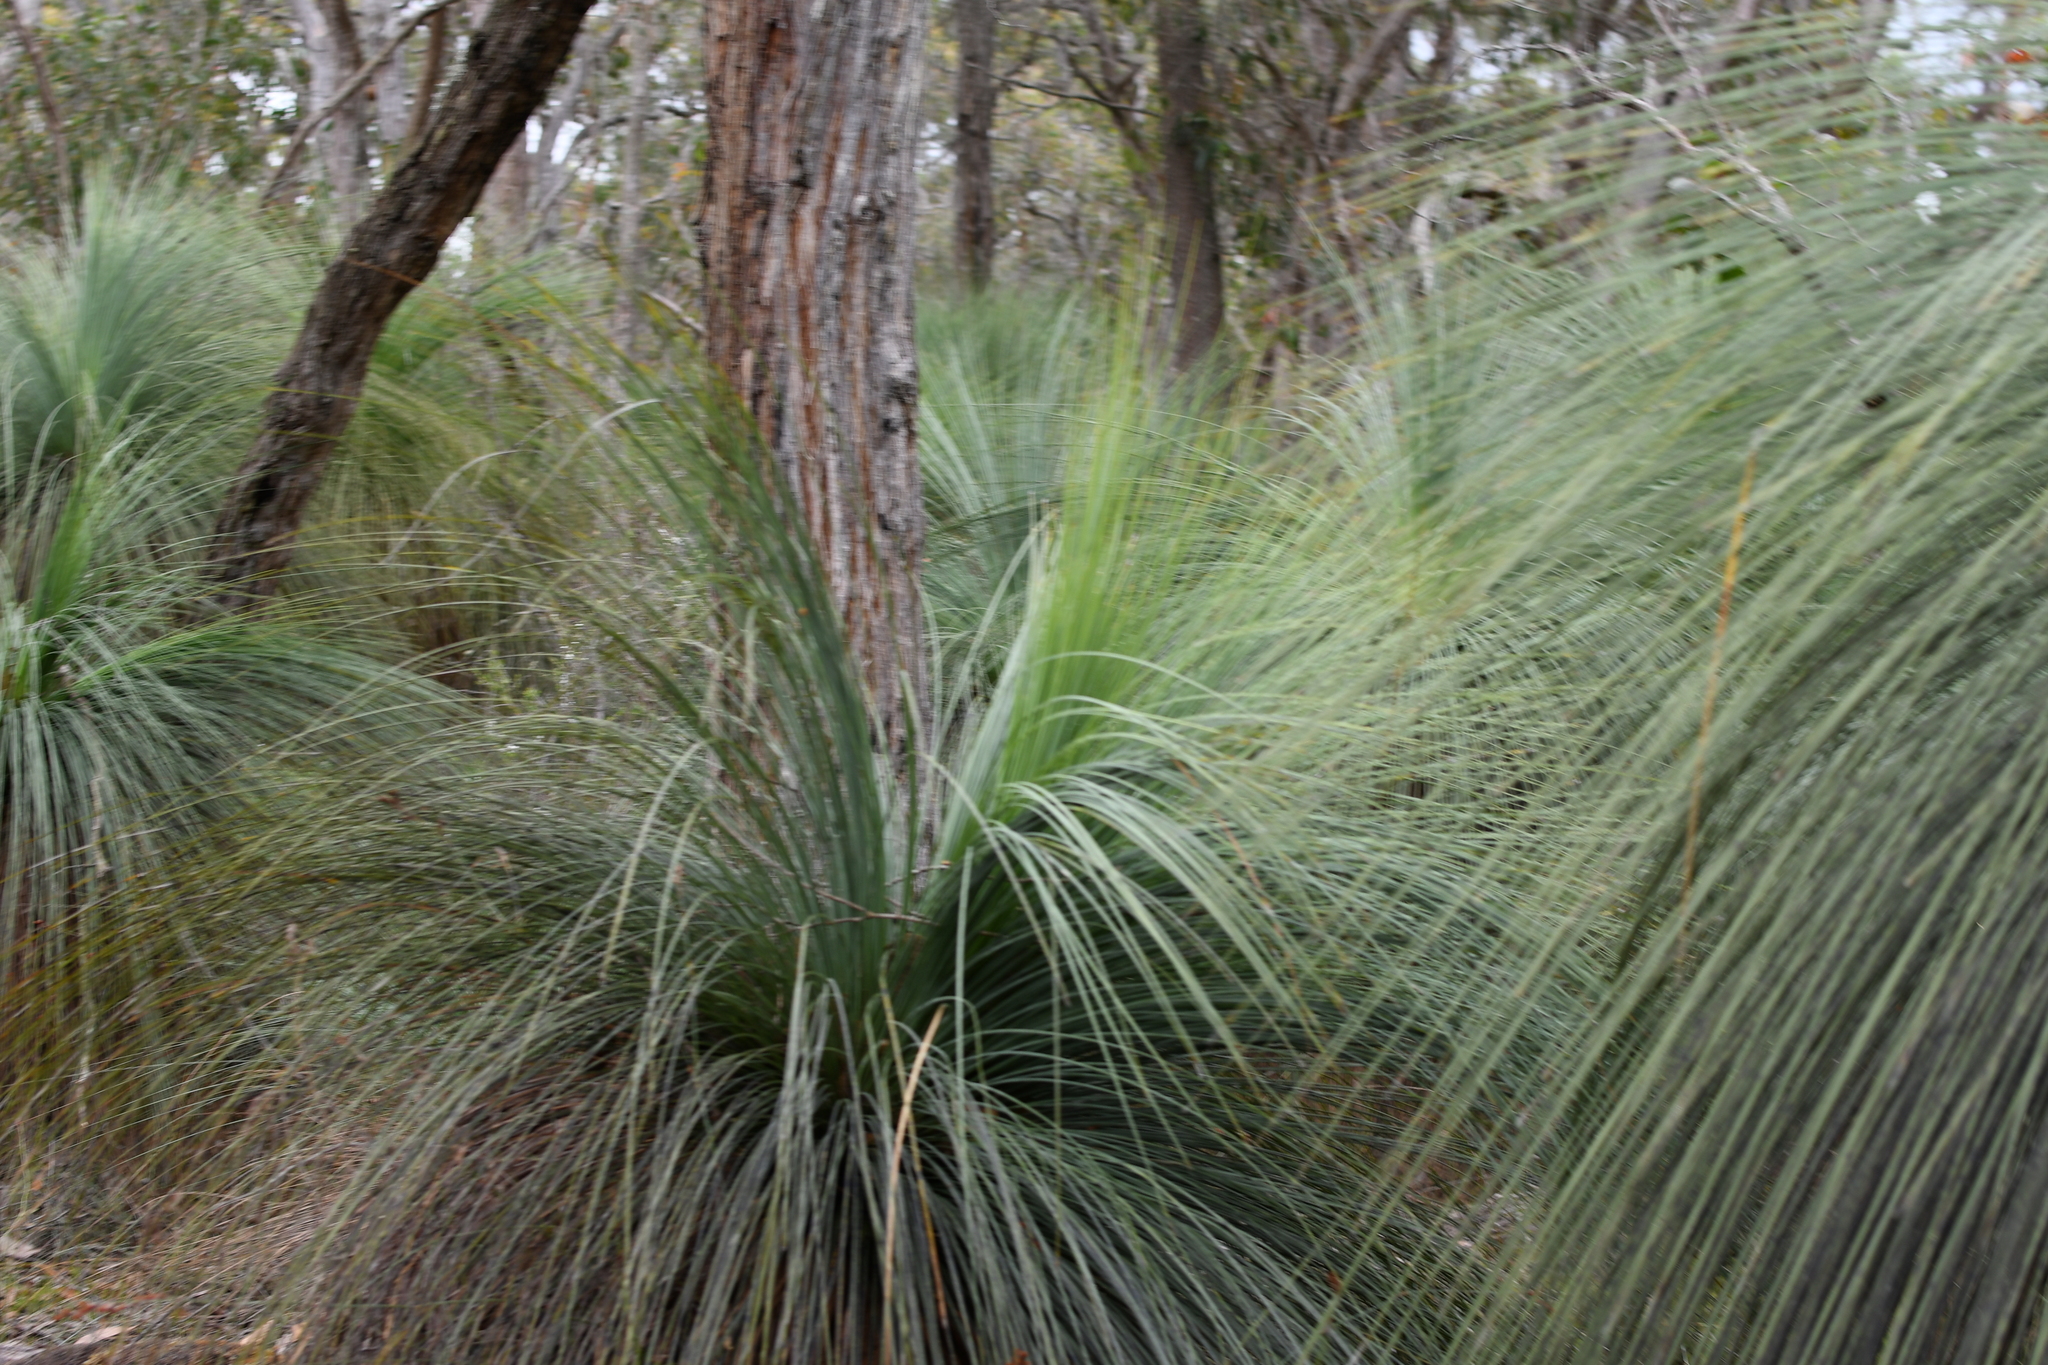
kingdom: Plantae
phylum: Tracheophyta
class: Liliopsida
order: Asparagales
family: Asphodelaceae
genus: Xanthorrhoea
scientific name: Xanthorrhoea australis
